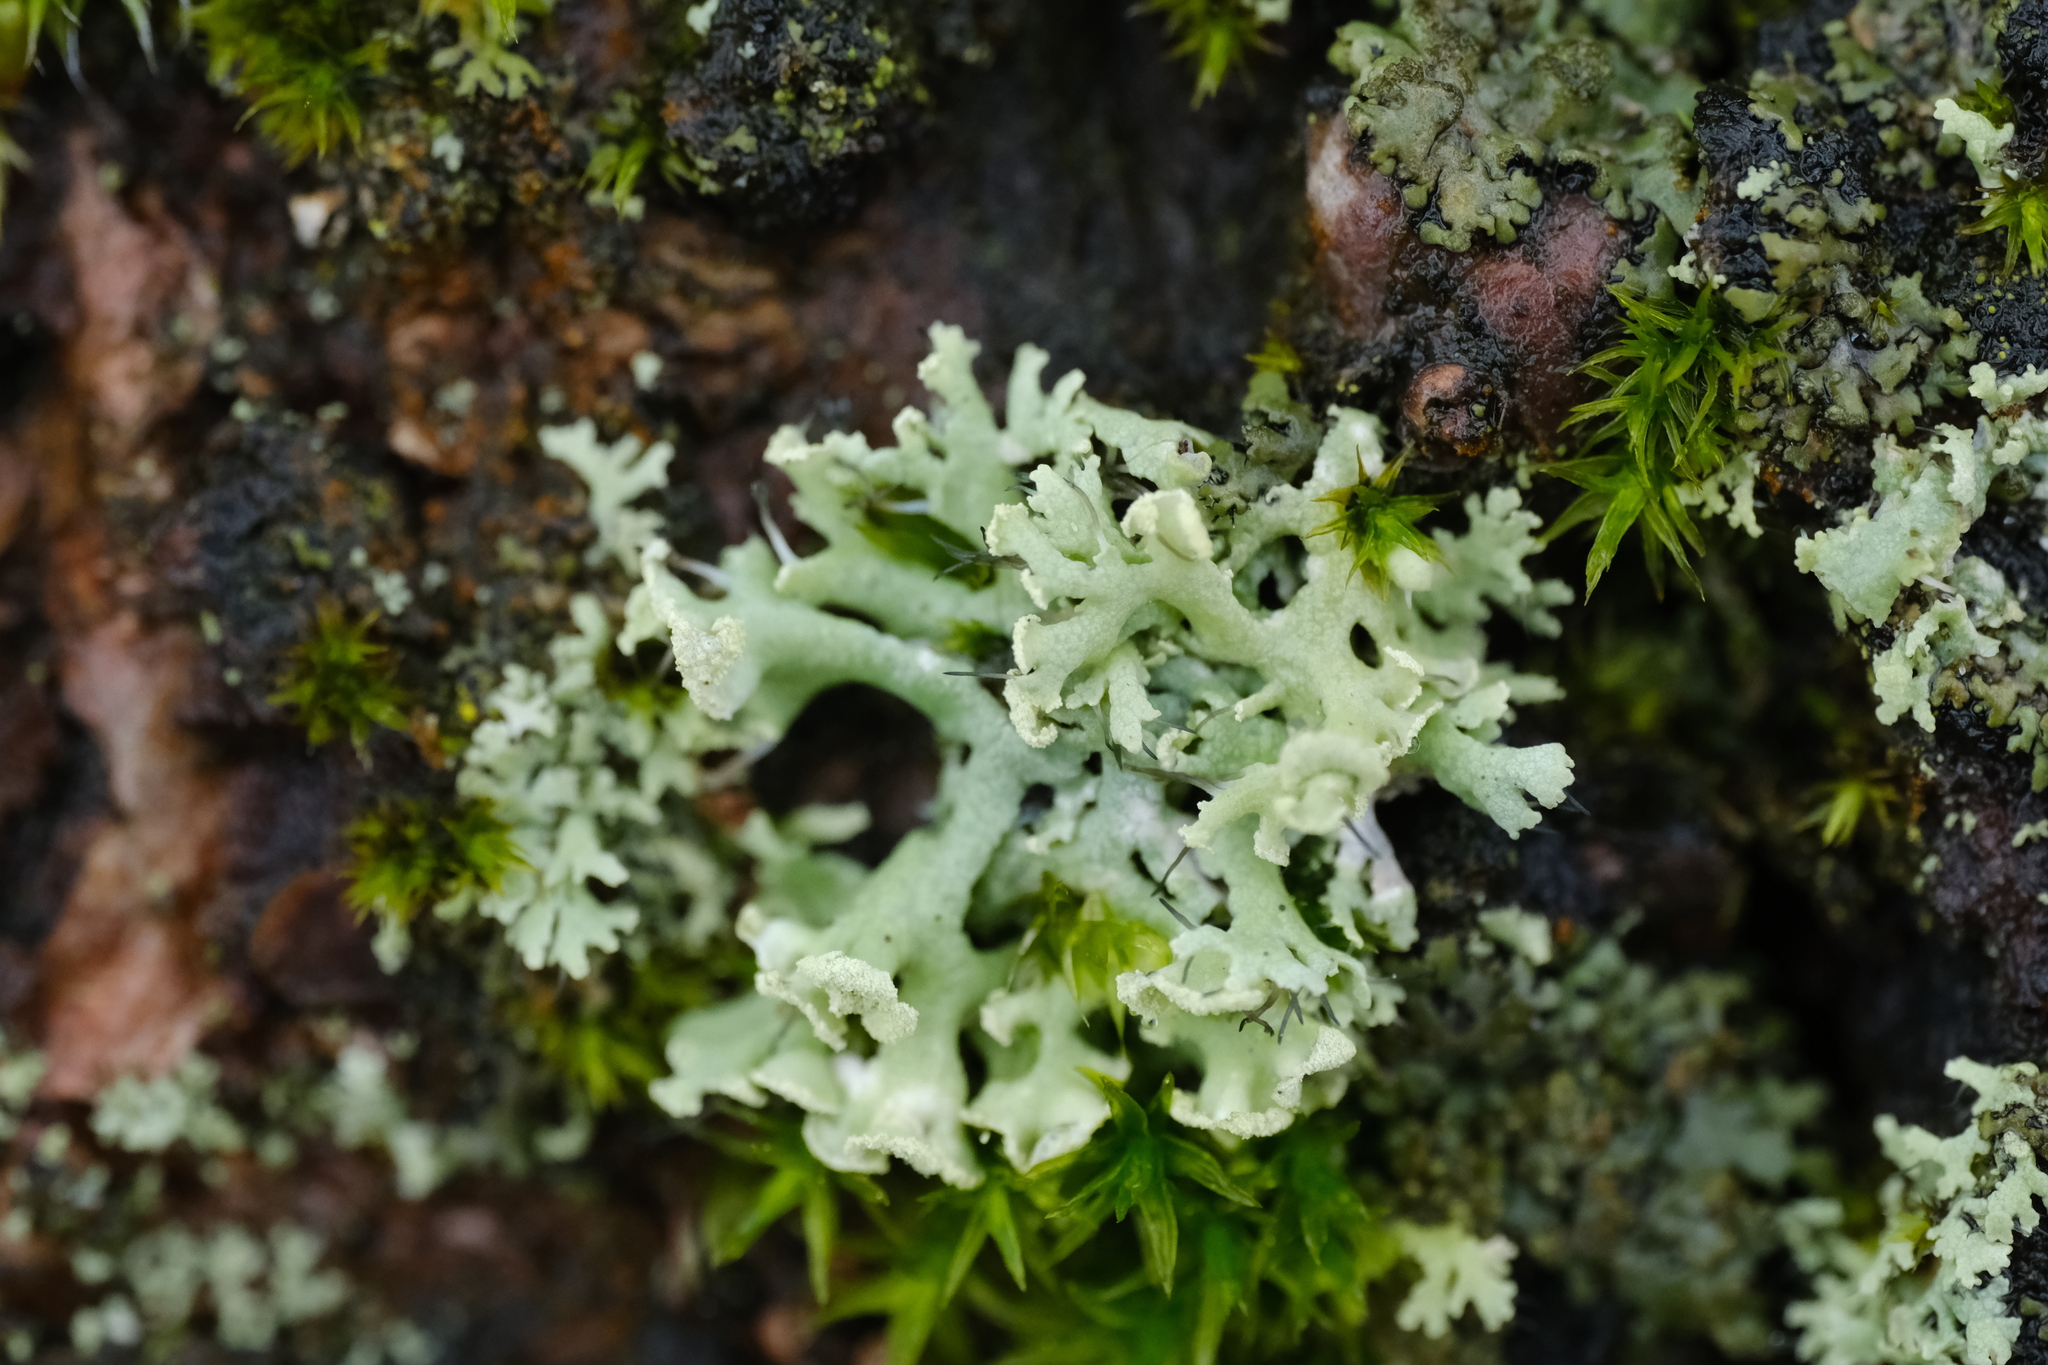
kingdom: Fungi
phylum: Ascomycota
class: Lecanoromycetes
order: Caliciales
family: Physciaceae
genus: Physcia
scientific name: Physcia tenella
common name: Fringed rosette lichen
